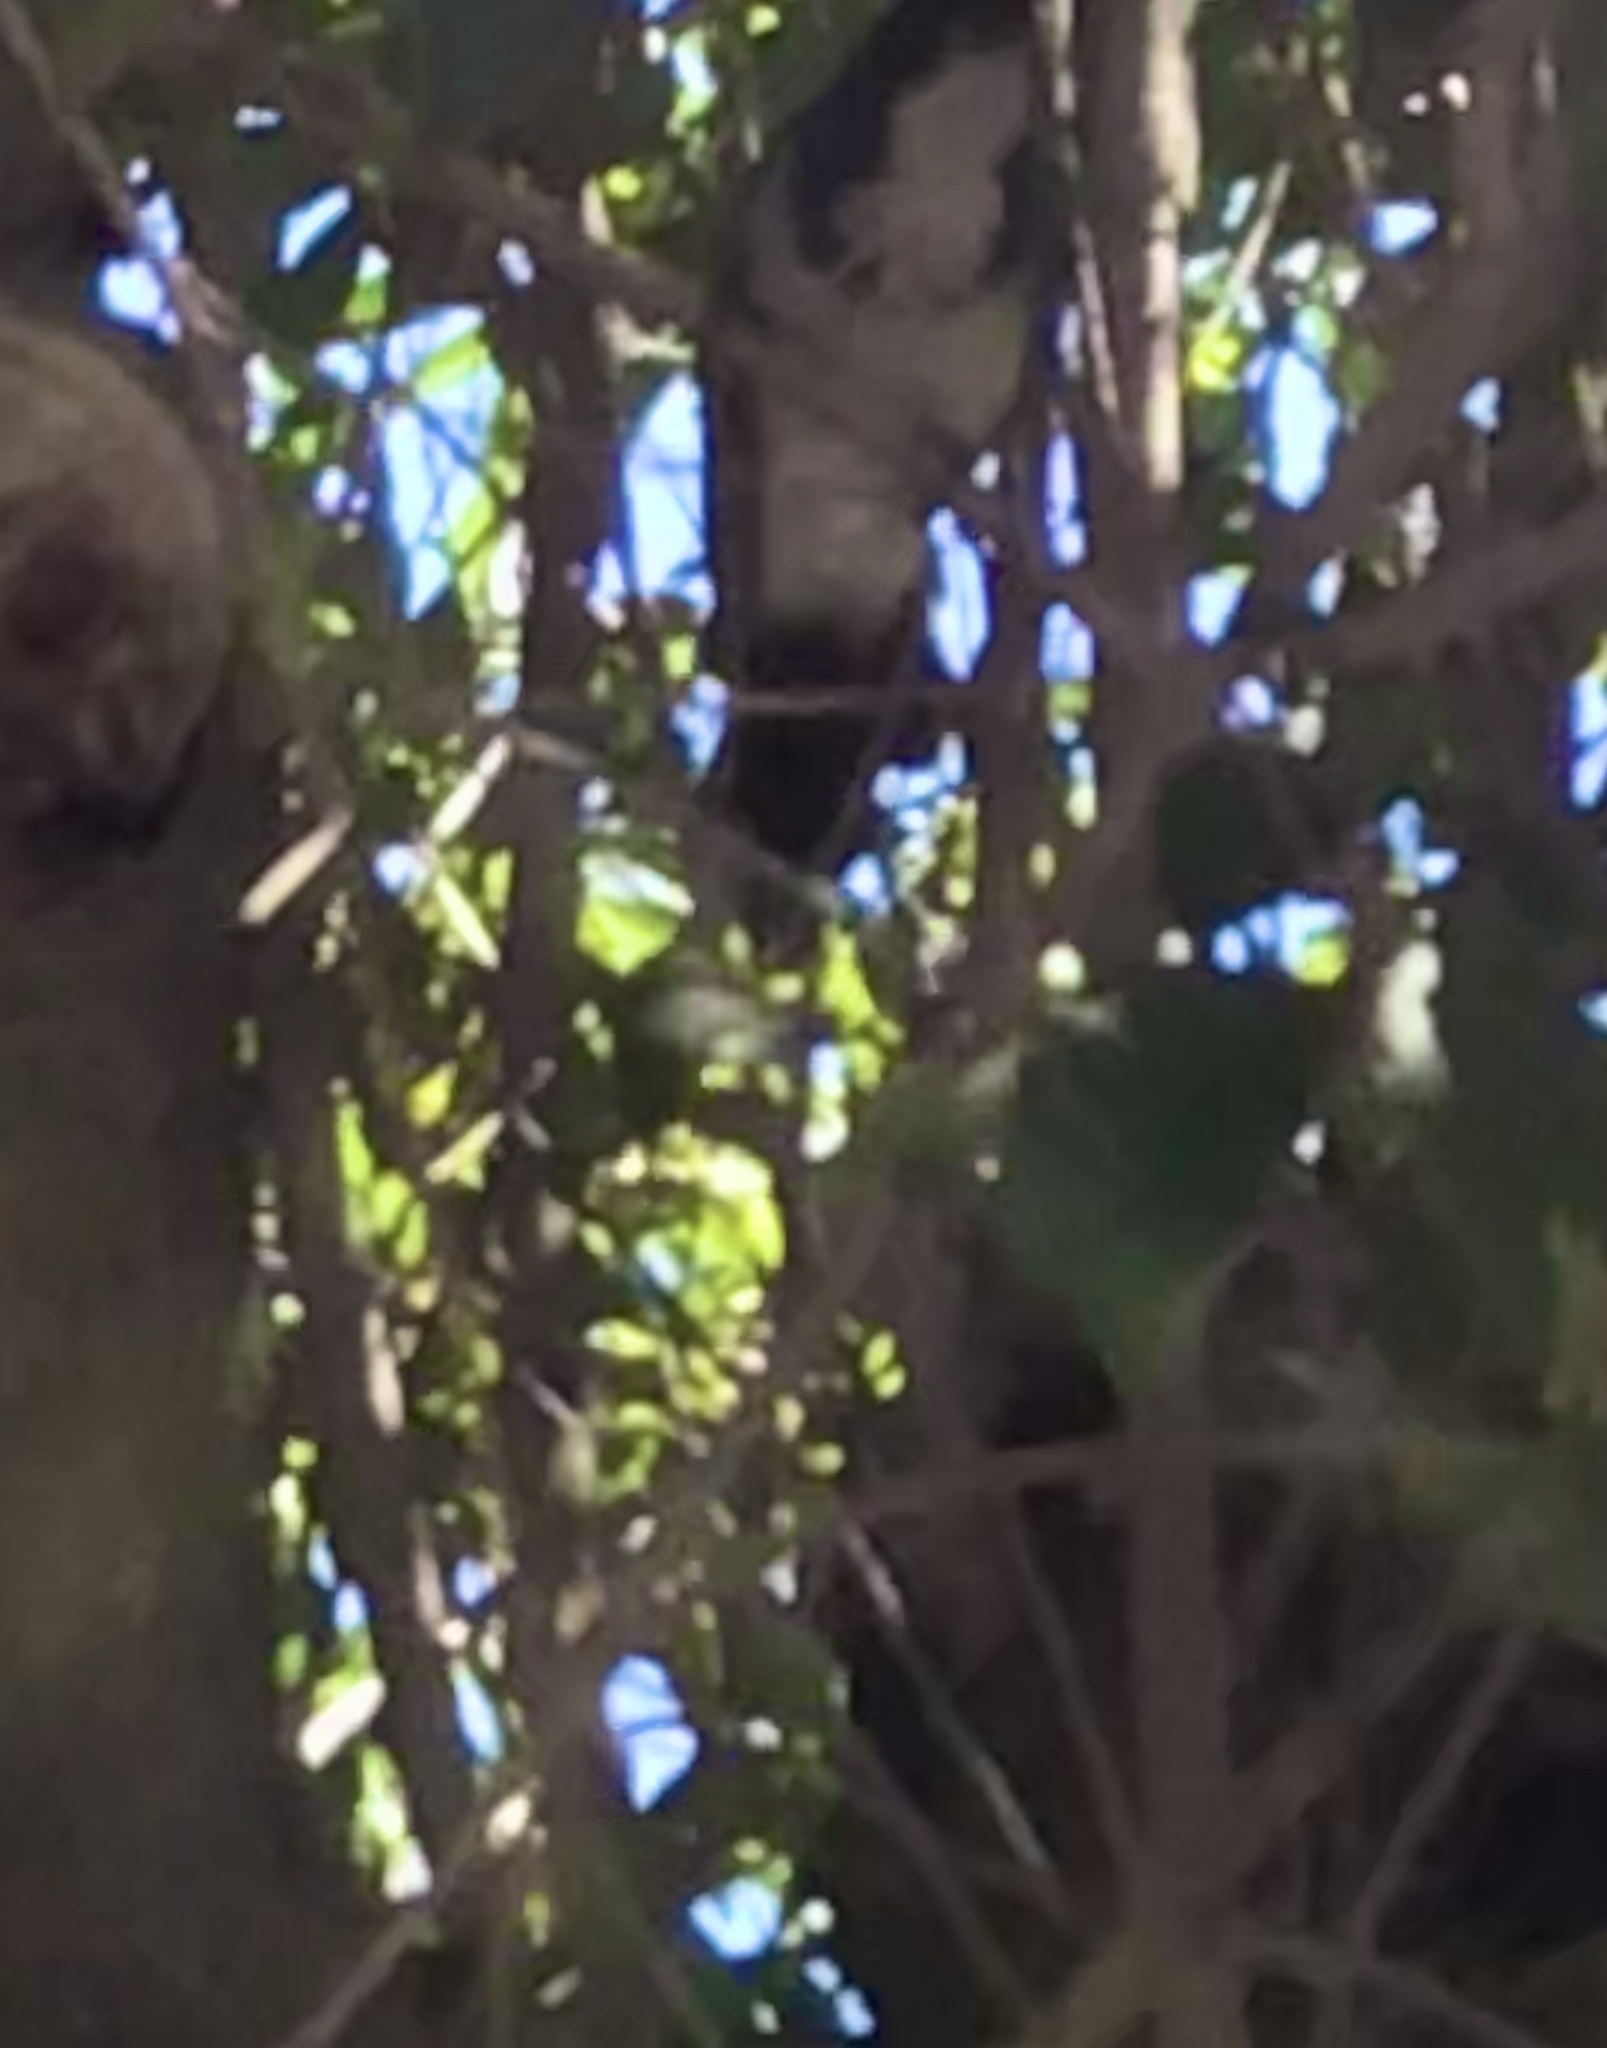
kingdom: Animalia
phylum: Chordata
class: Aves
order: Passeriformes
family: Corvidae
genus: Aphelocoma
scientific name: Aphelocoma californica
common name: California scrub-jay
